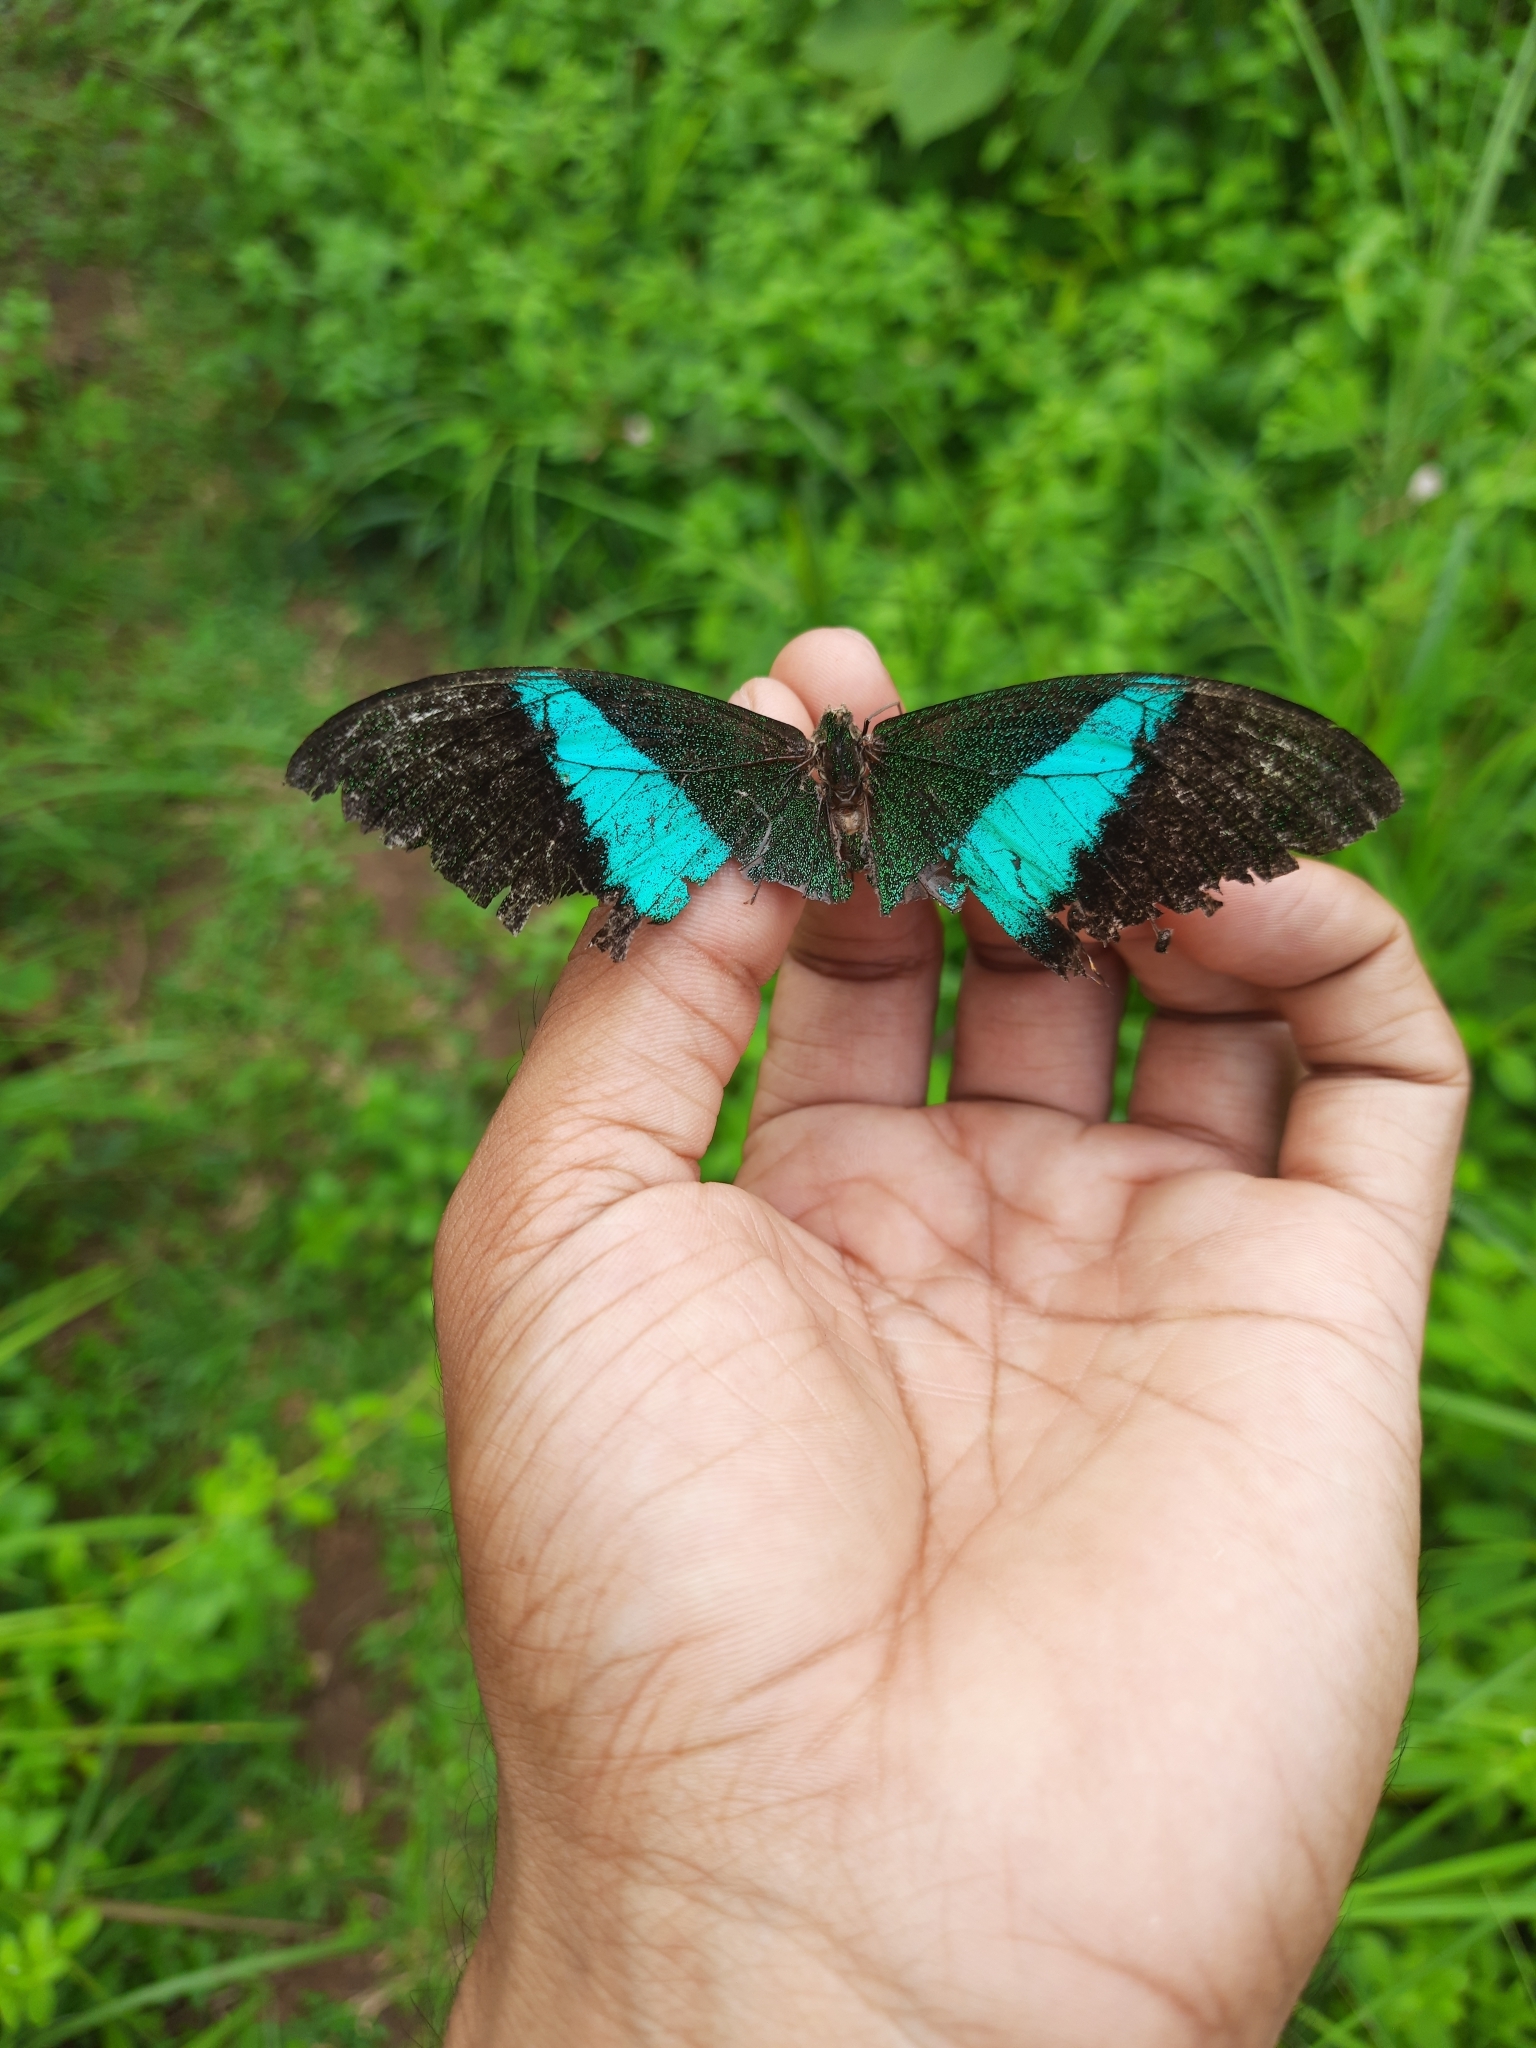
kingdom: Animalia
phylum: Arthropoda
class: Insecta
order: Lepidoptera
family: Papilionidae
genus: Papilio
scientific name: Papilio buddha
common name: Malabar banded peacock
